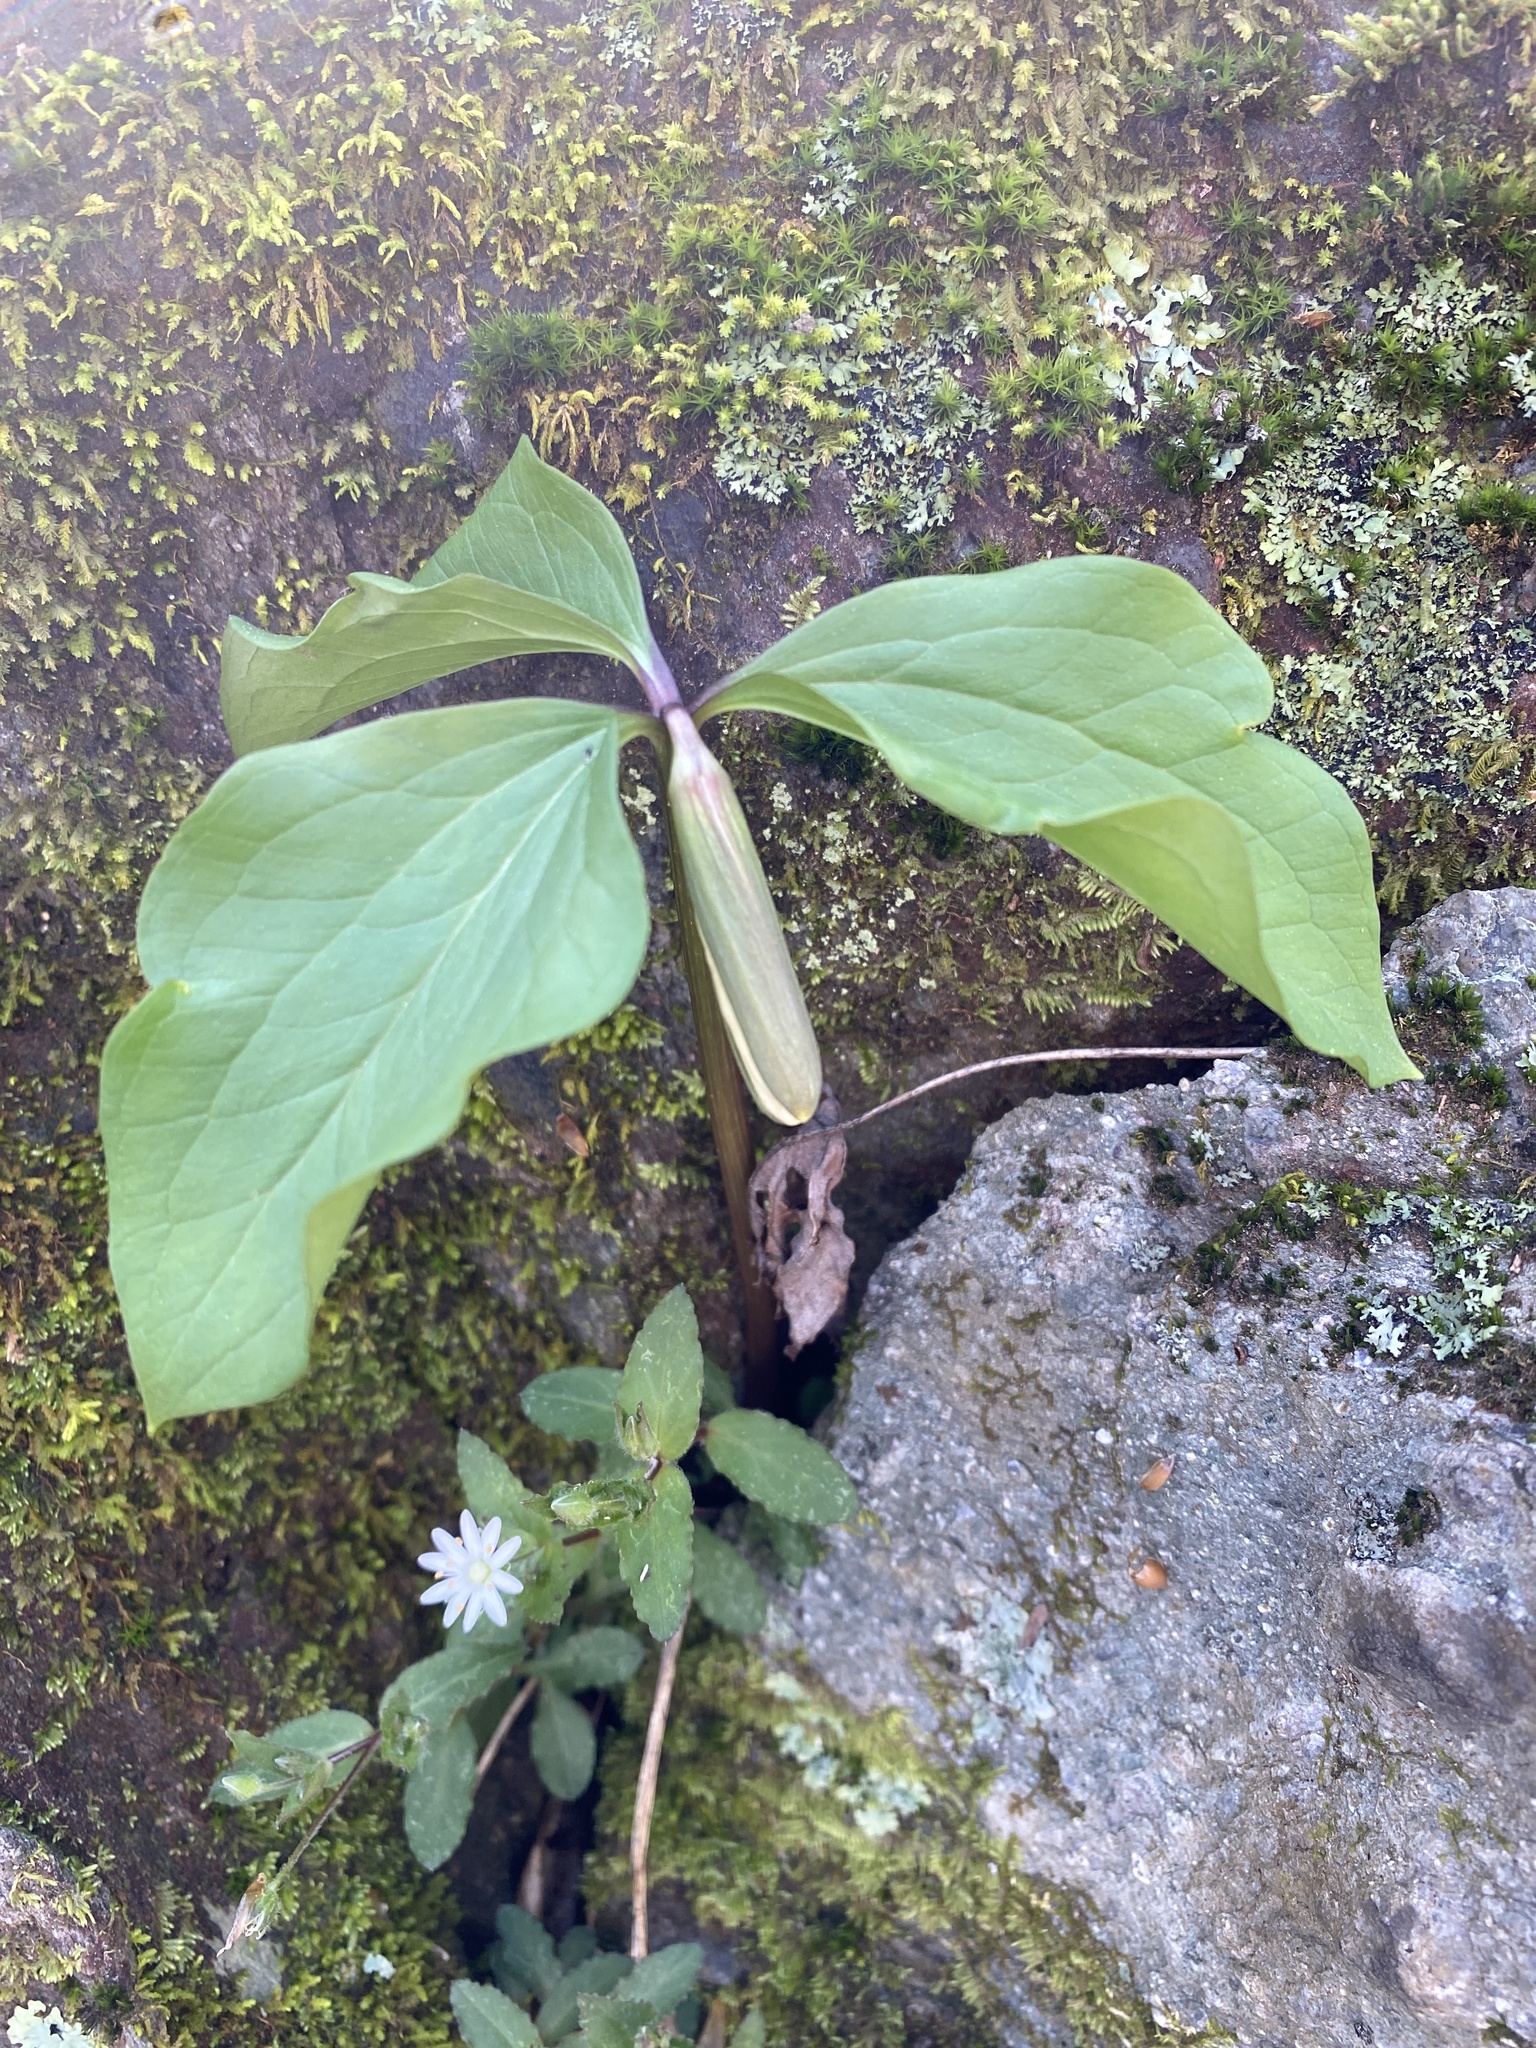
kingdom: Plantae
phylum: Tracheophyta
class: Liliopsida
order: Liliales
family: Melanthiaceae
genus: Trillium
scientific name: Trillium catesbaei
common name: Bashful trillium
